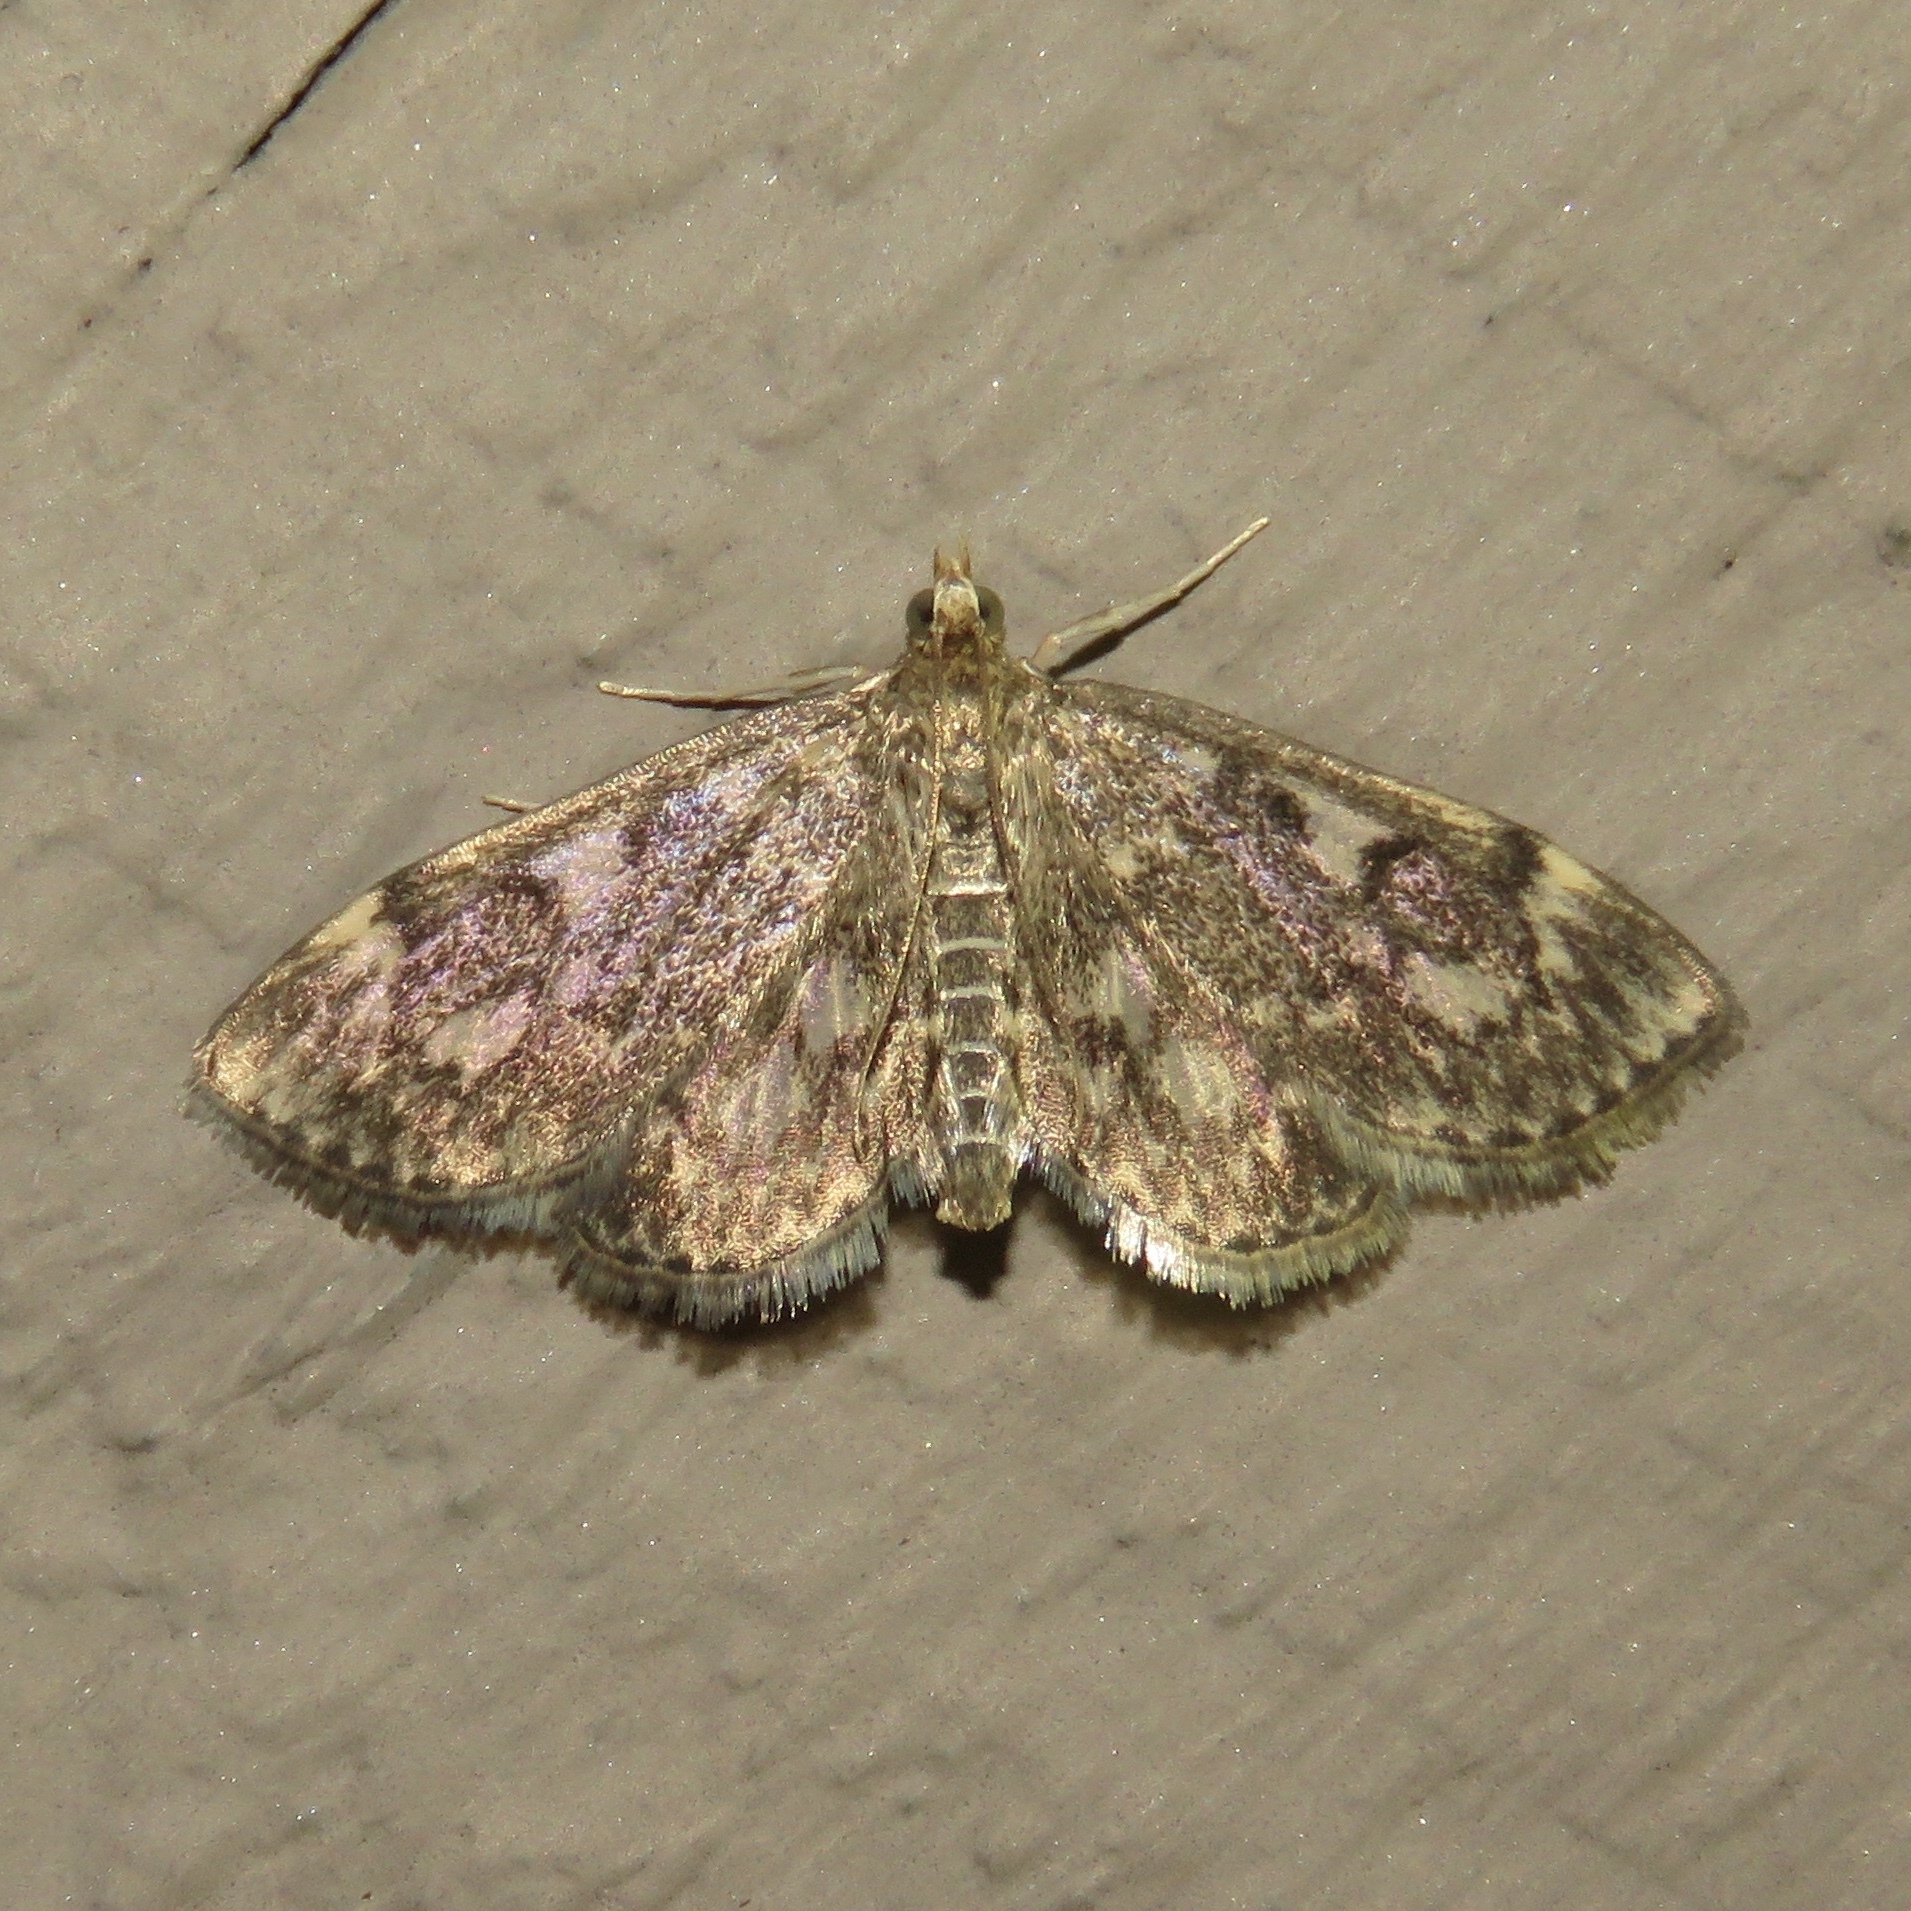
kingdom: Animalia
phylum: Arthropoda
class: Insecta
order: Lepidoptera
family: Crambidae
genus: Anania
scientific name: Anania
